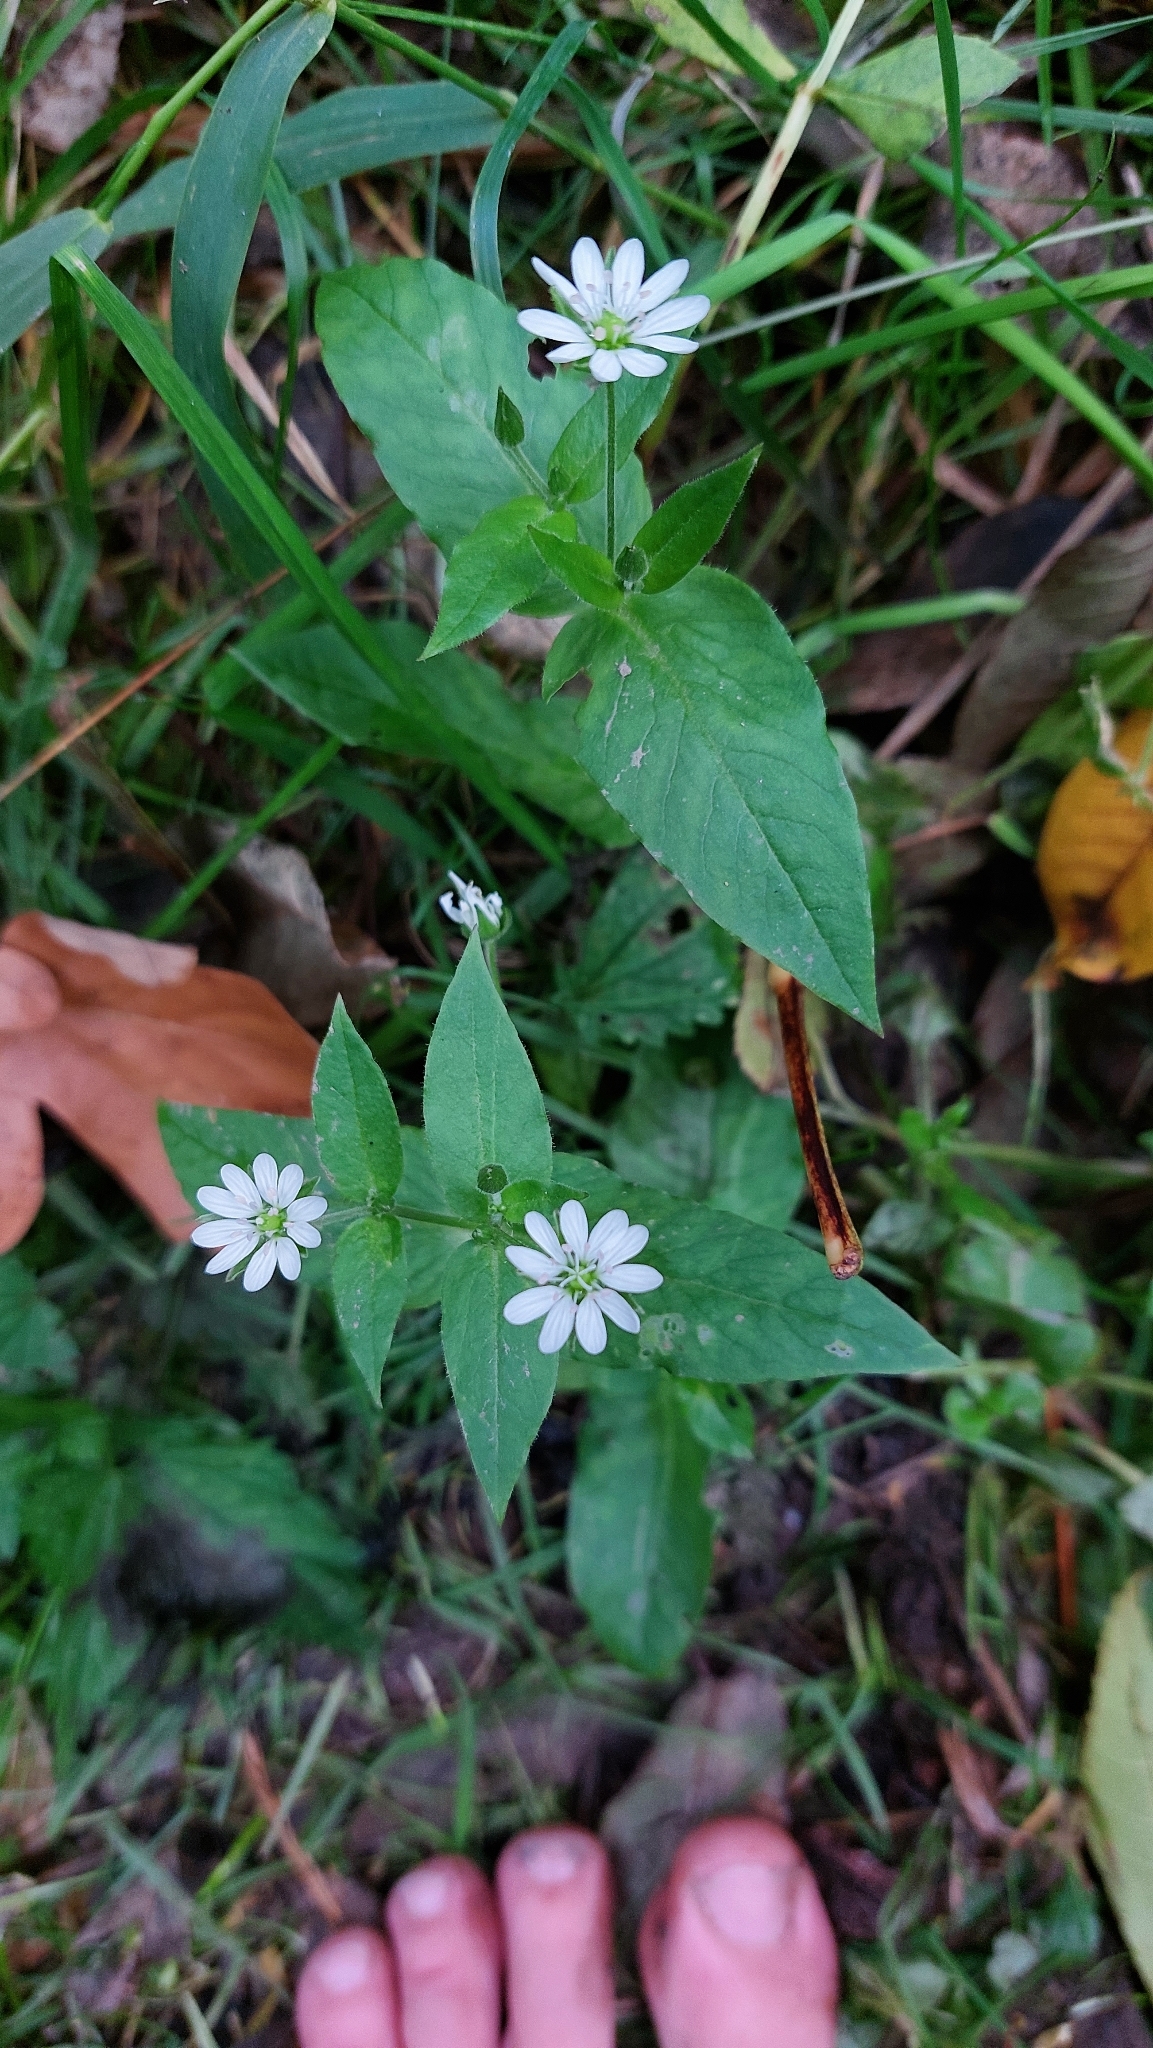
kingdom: Plantae
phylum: Tracheophyta
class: Magnoliopsida
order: Caryophyllales
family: Caryophyllaceae
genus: Stellaria
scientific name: Stellaria aquatica
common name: Water chickweed
